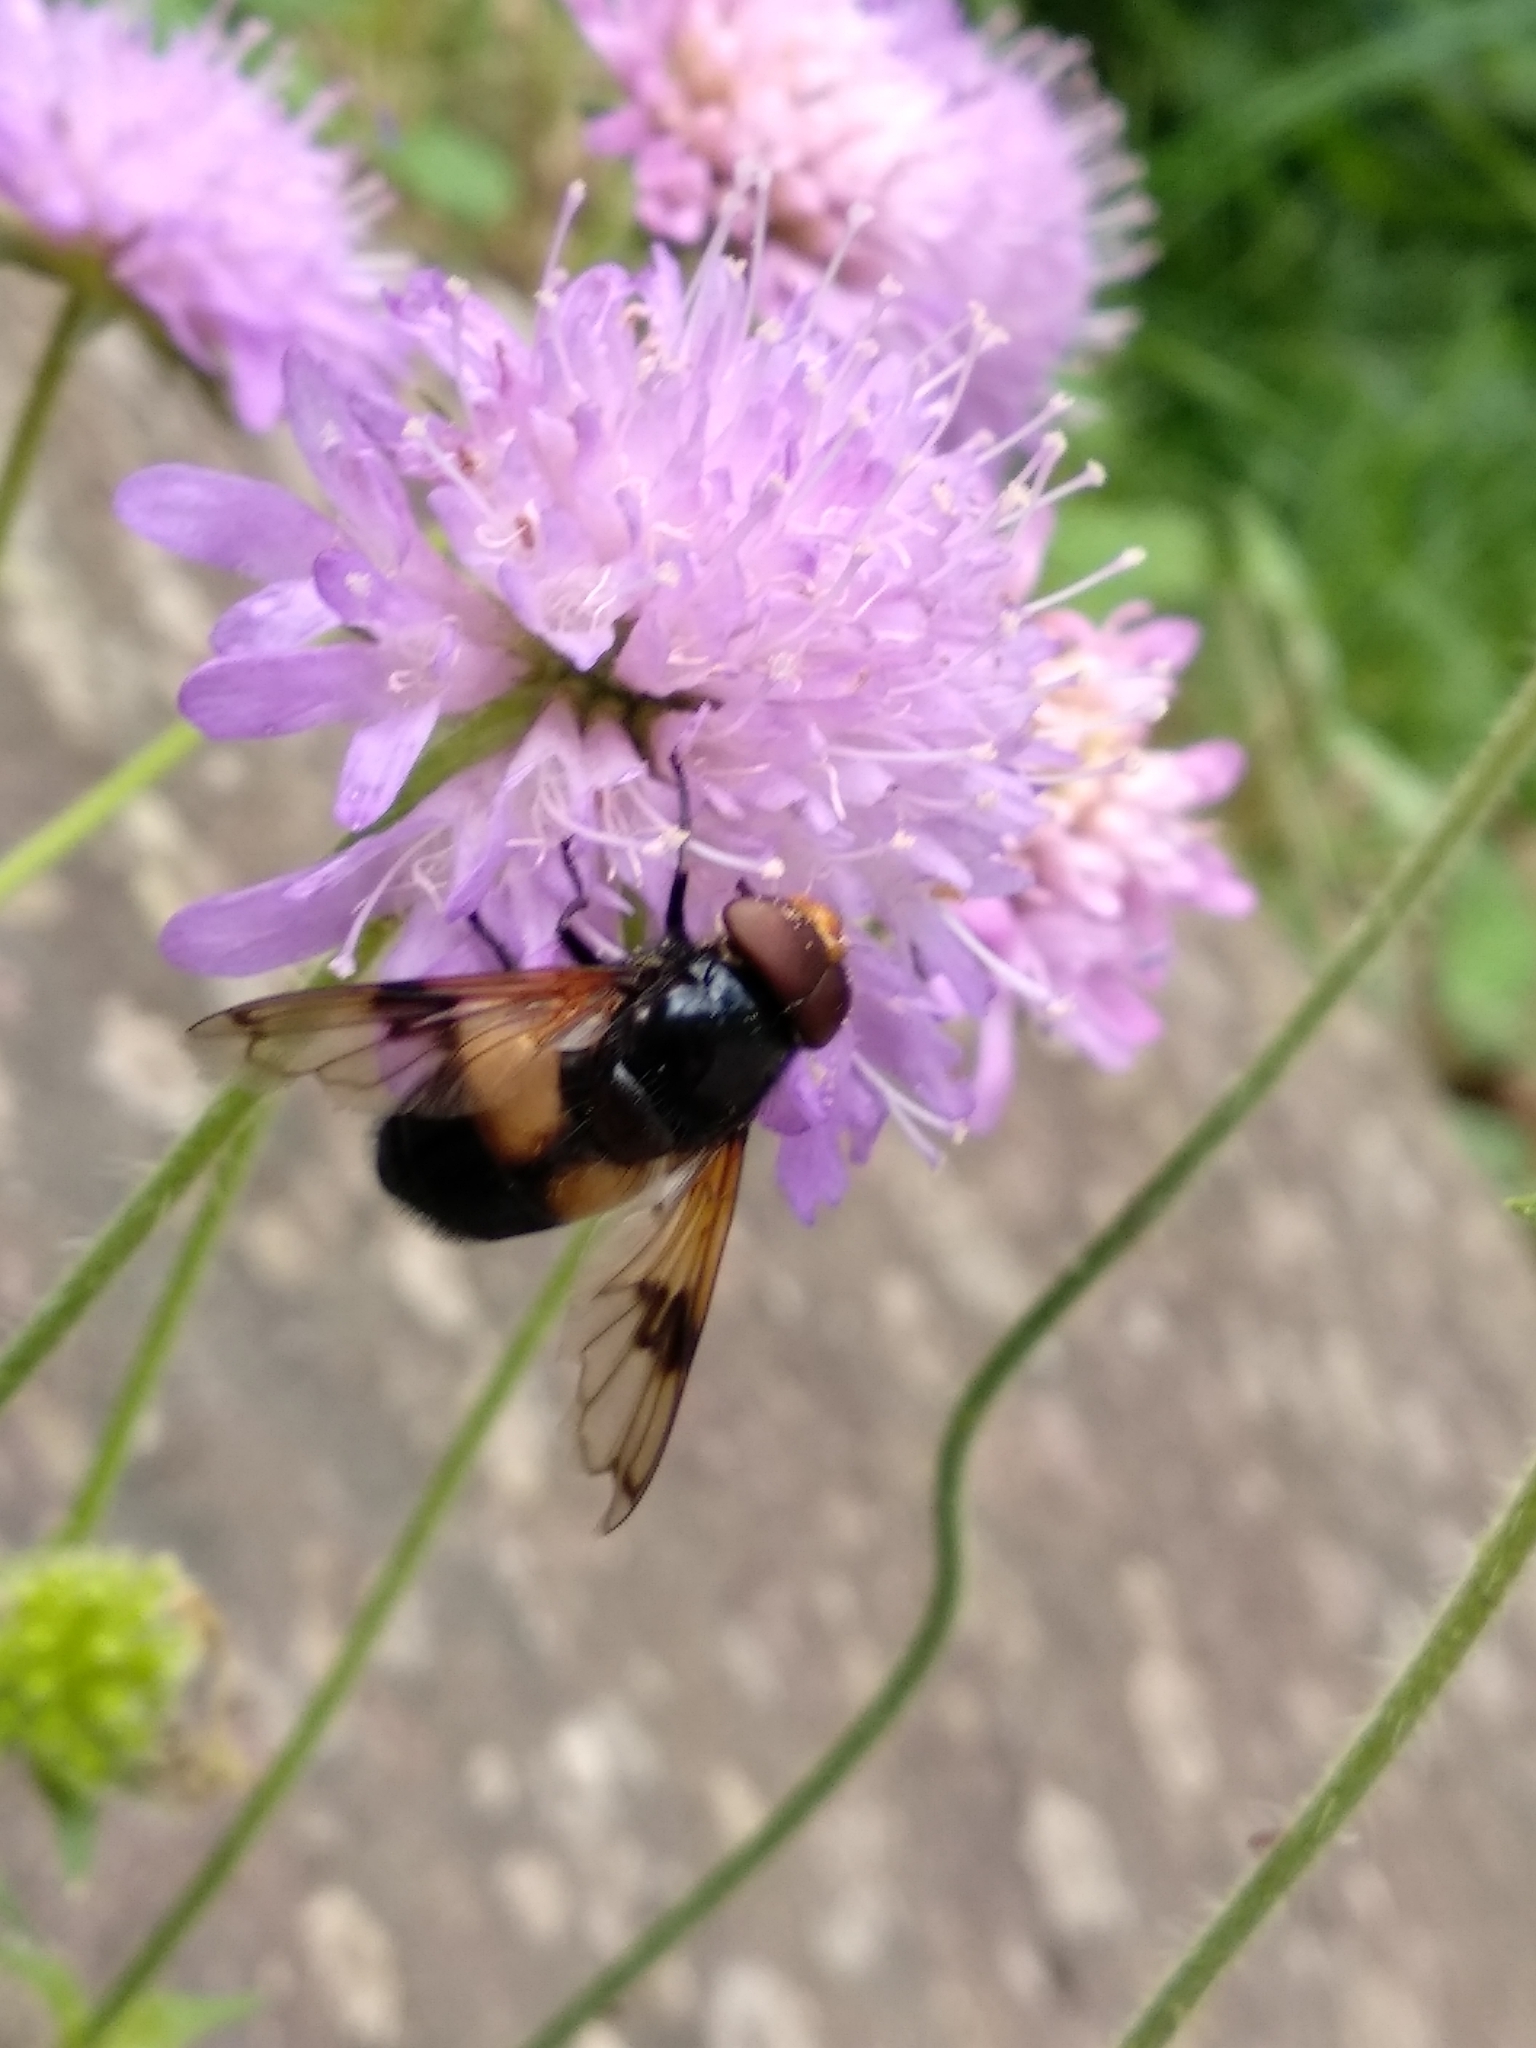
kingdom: Animalia
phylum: Arthropoda
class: Insecta
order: Diptera
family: Syrphidae
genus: Volucella
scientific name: Volucella pellucens
